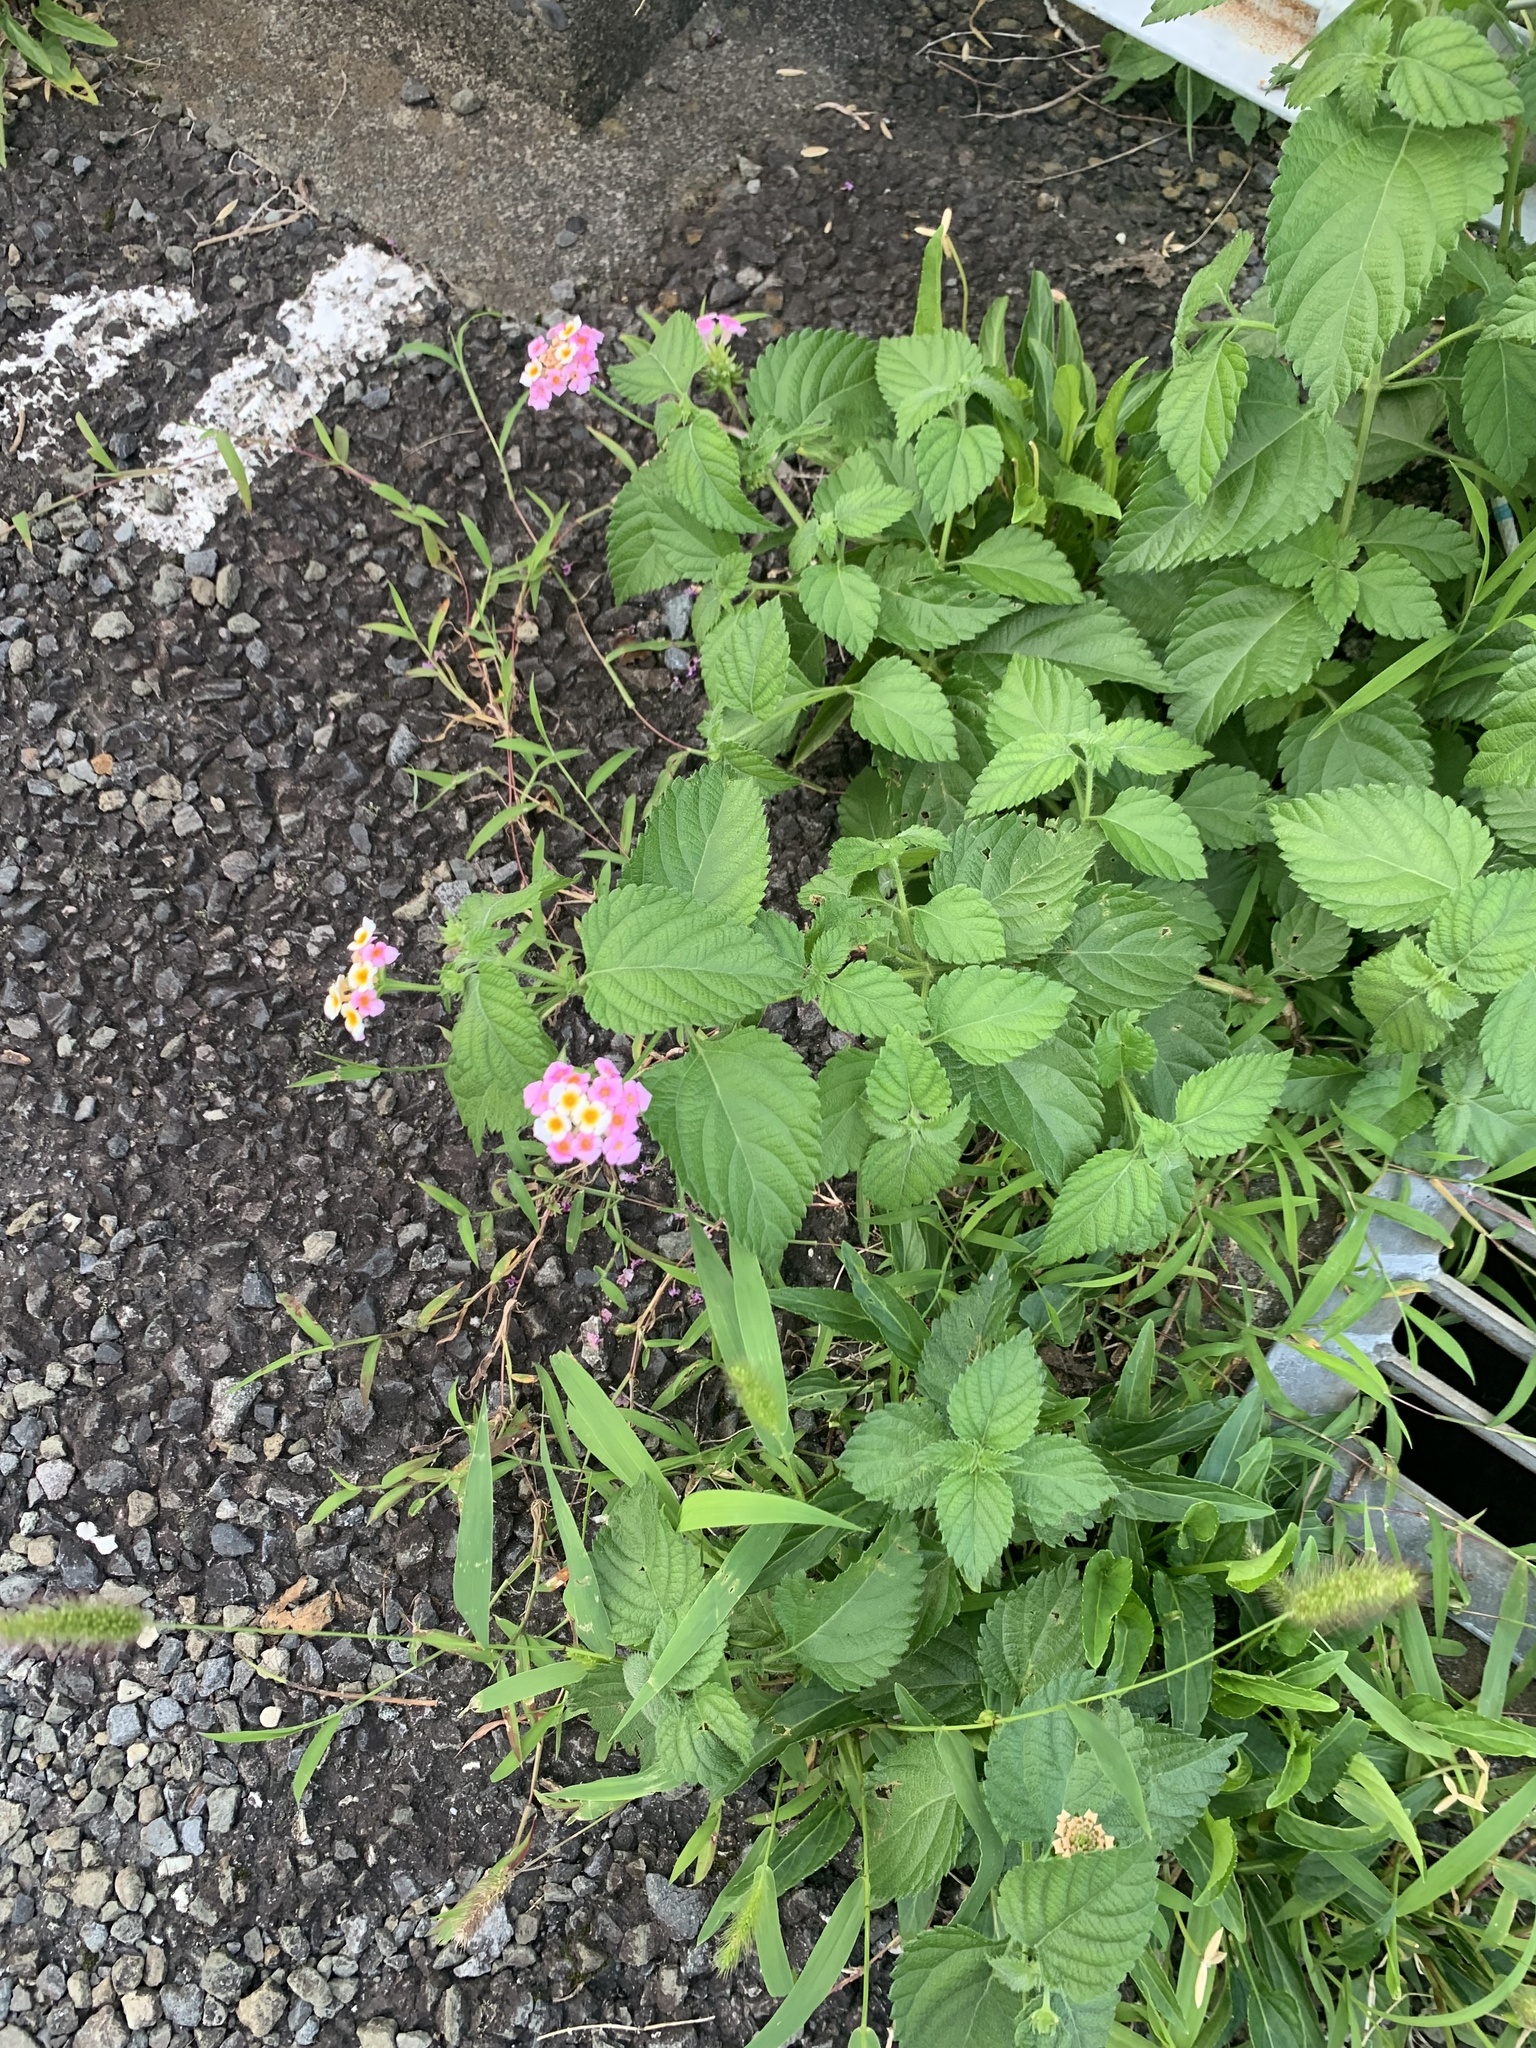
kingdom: Plantae
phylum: Tracheophyta
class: Magnoliopsida
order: Lamiales
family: Verbenaceae
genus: Lantana
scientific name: Lantana camara
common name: Lantana
